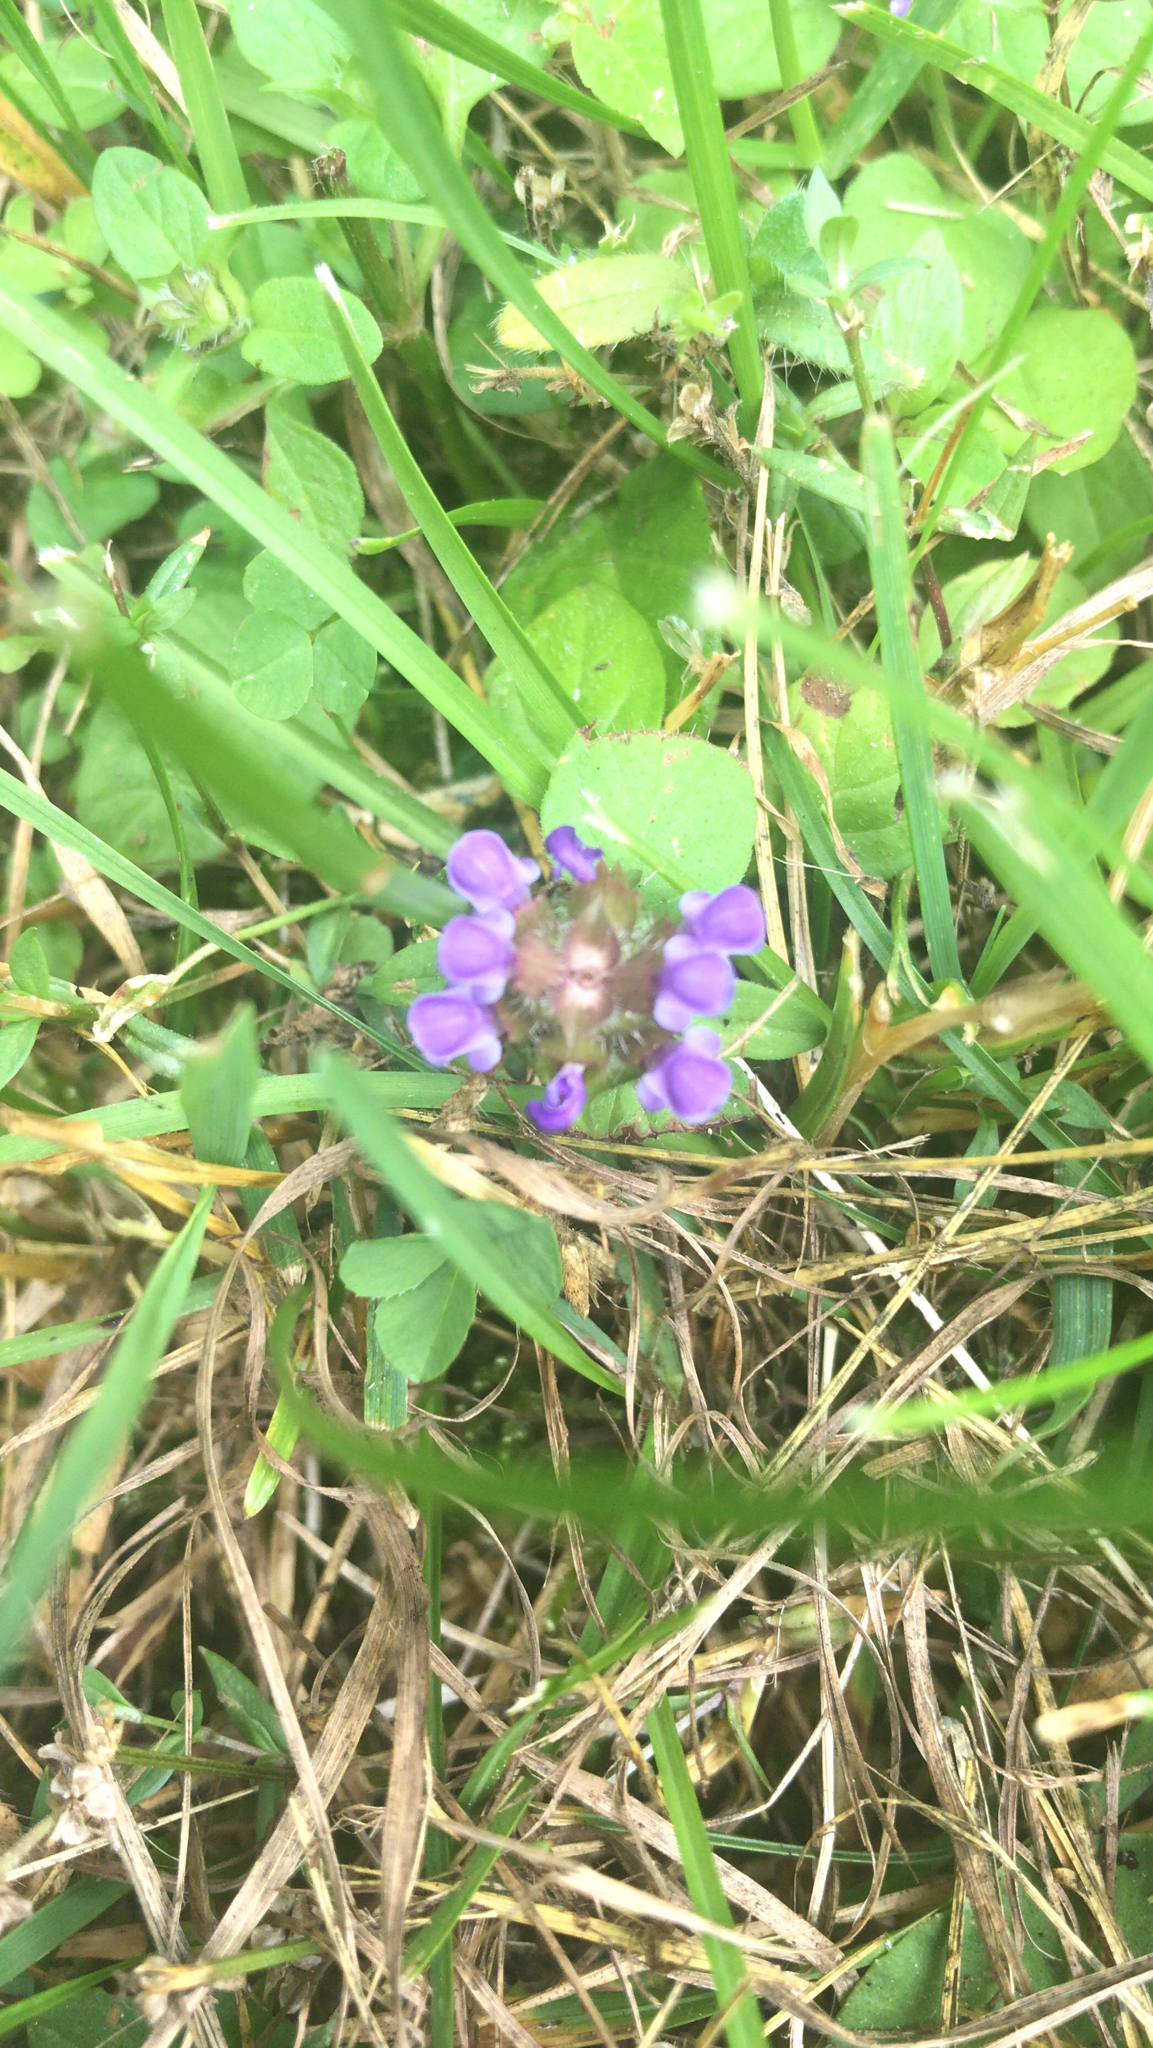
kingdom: Plantae
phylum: Tracheophyta
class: Magnoliopsida
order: Lamiales
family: Lamiaceae
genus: Prunella
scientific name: Prunella vulgaris
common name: Heal-all
